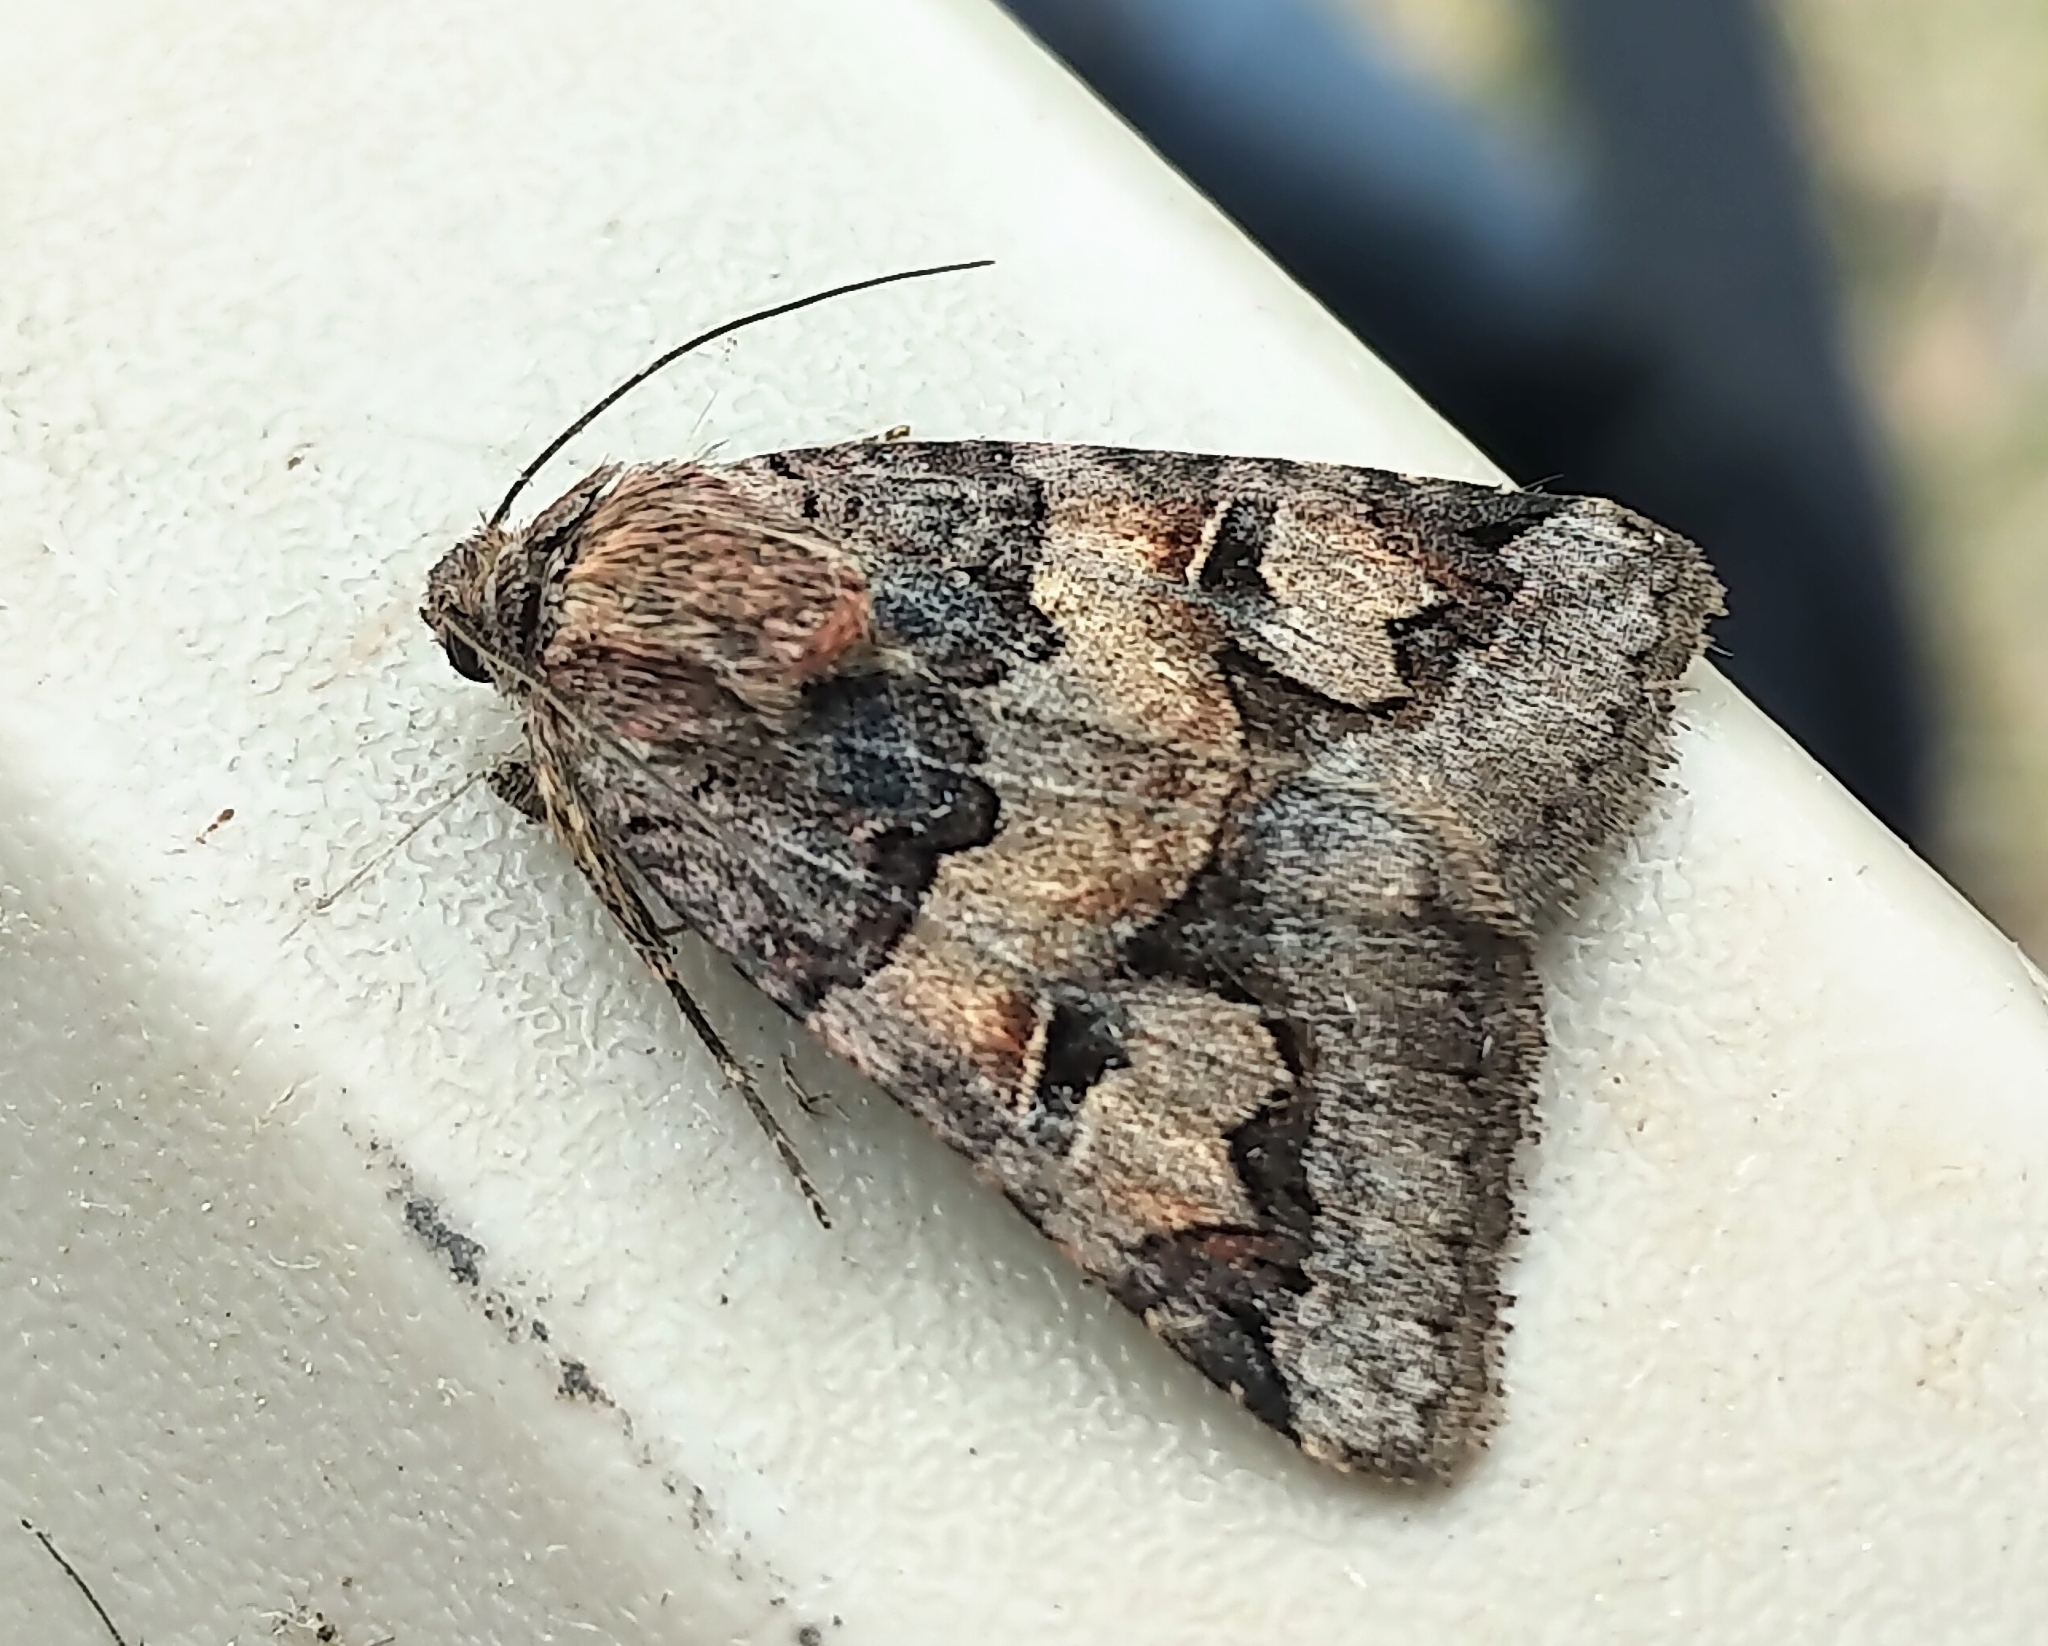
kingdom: Animalia
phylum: Arthropoda
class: Insecta
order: Lepidoptera
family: Erebidae
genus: Drasteria
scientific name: Drasteria adumbrata
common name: Shadowy arches
